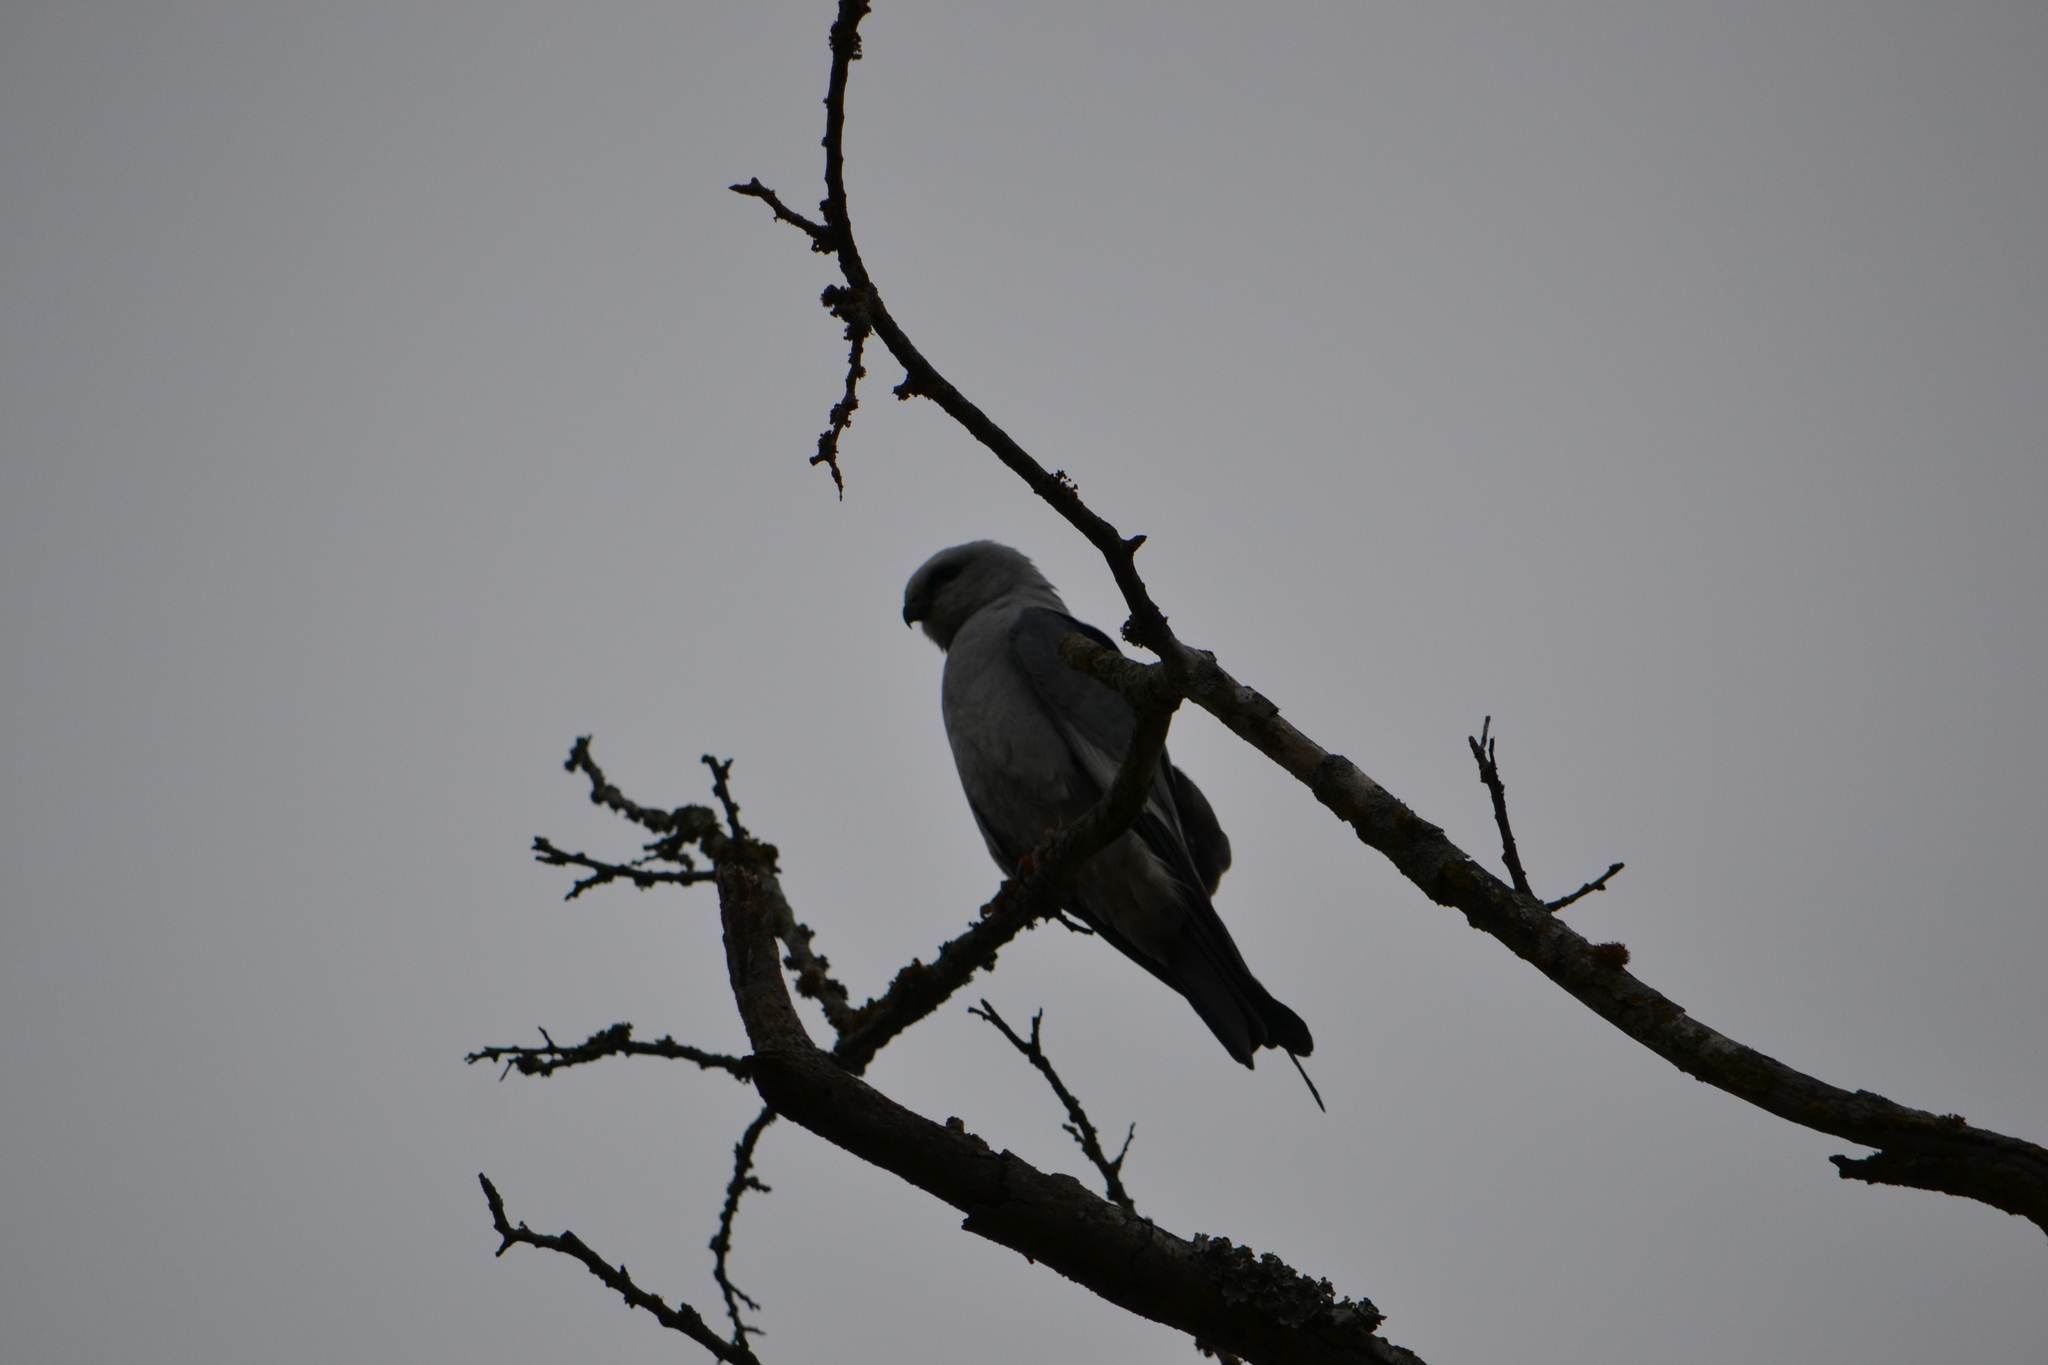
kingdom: Animalia
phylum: Chordata
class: Aves
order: Accipitriformes
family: Accipitridae
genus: Ictinia
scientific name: Ictinia mississippiensis
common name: Mississippi kite
